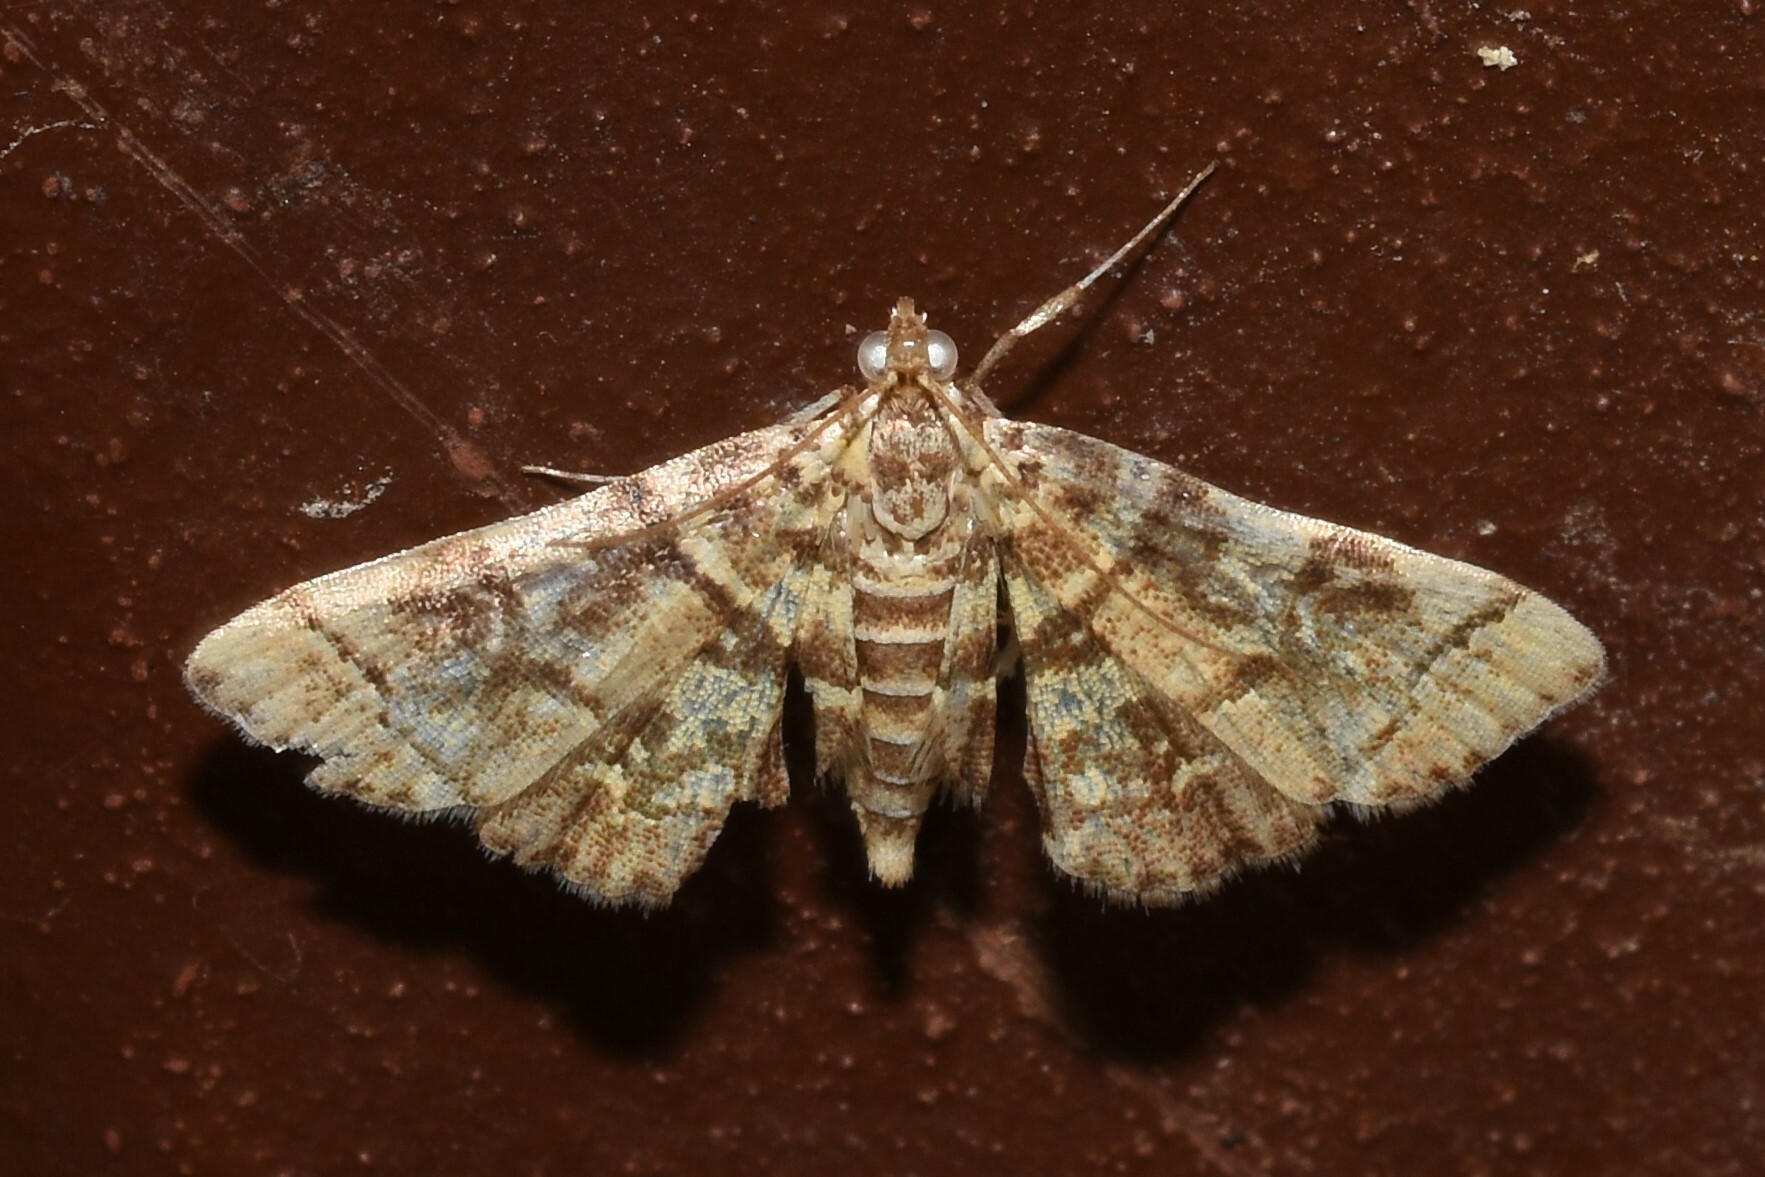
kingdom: Animalia
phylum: Arthropoda
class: Insecta
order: Lepidoptera
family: Crambidae
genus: Apogeshna
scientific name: Apogeshna stenialis
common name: Checkered apogeshna moth
